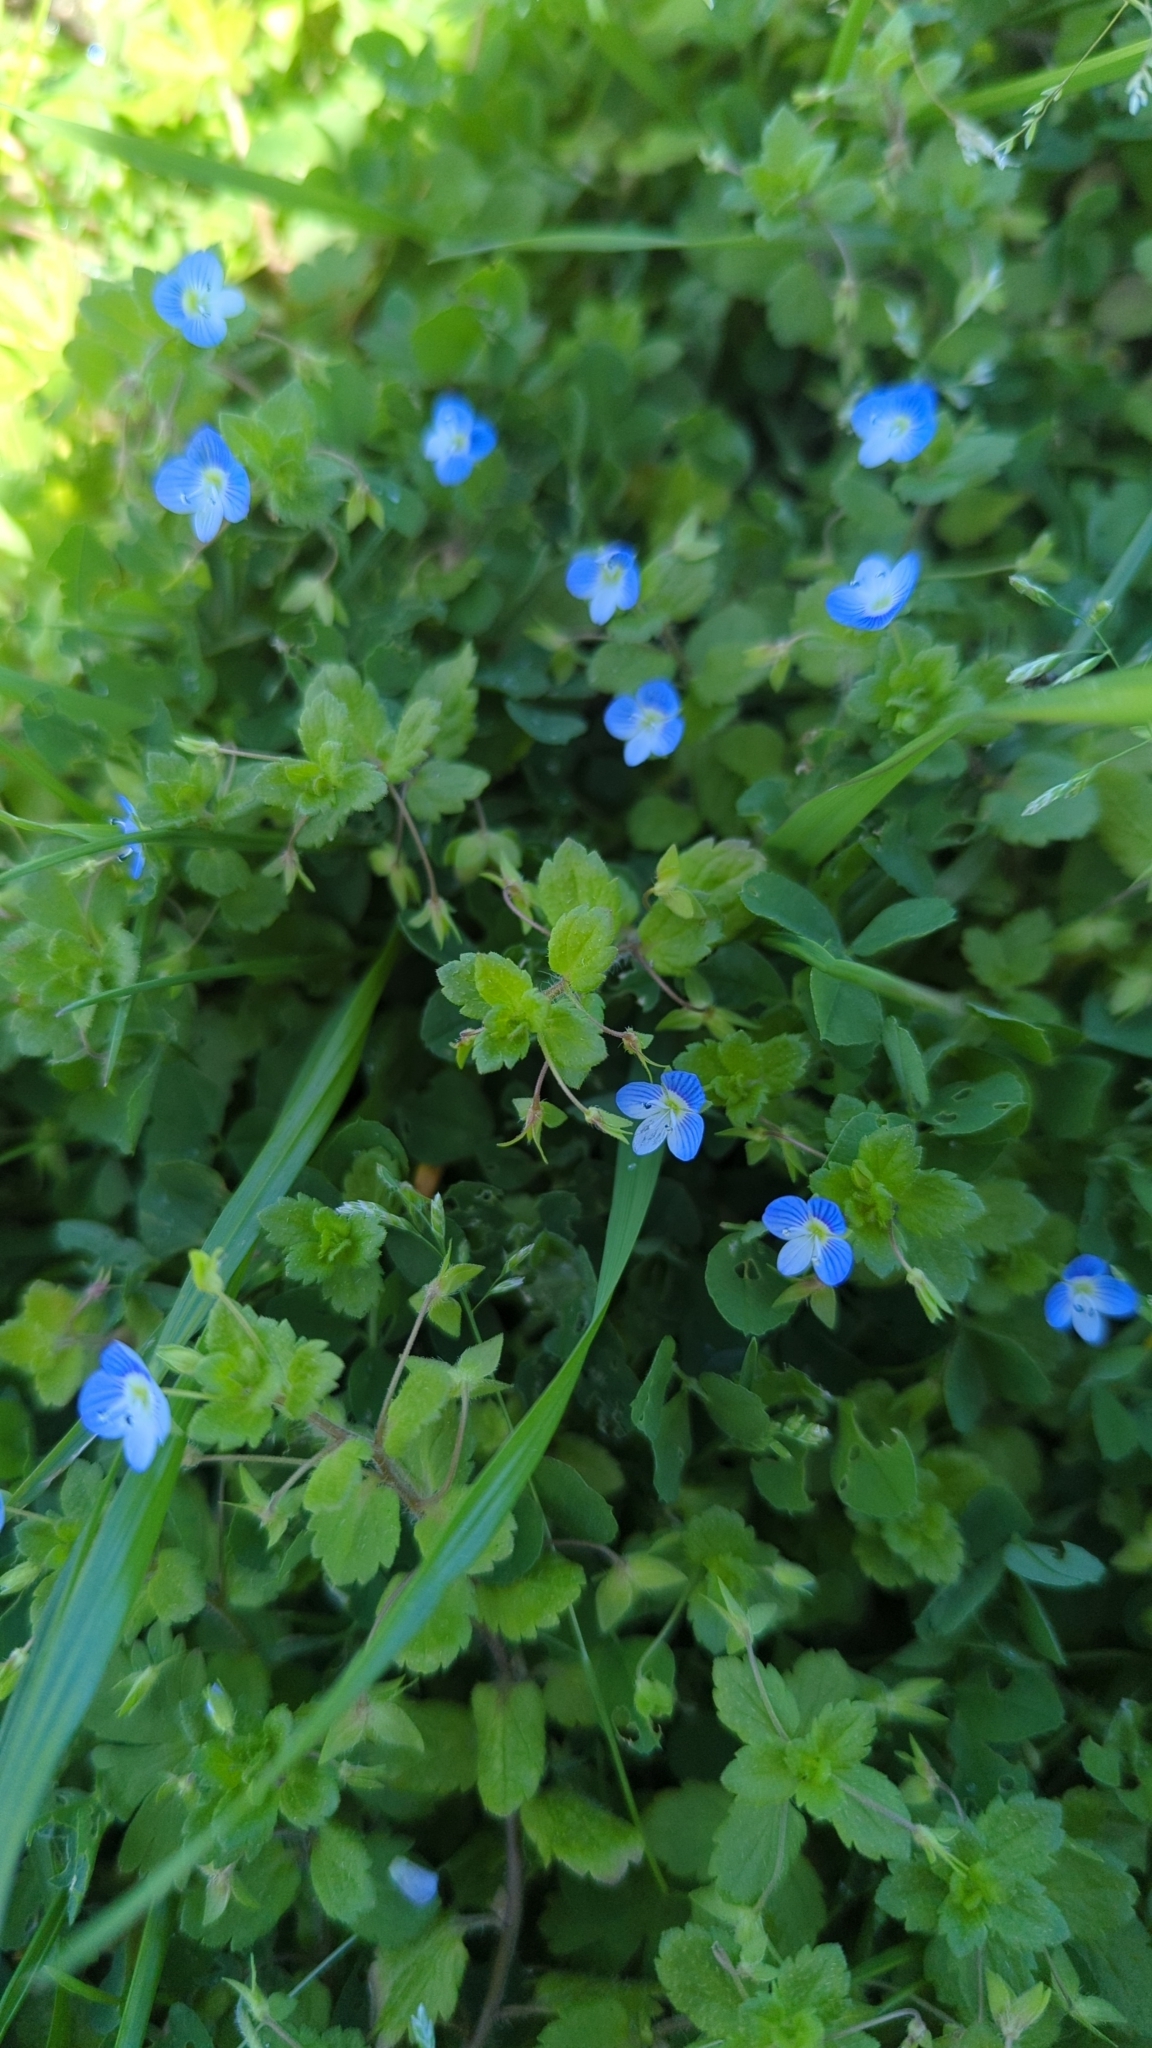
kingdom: Plantae
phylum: Tracheophyta
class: Magnoliopsida
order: Lamiales
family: Plantaginaceae
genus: Veronica
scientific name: Veronica persica
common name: Common field-speedwell
